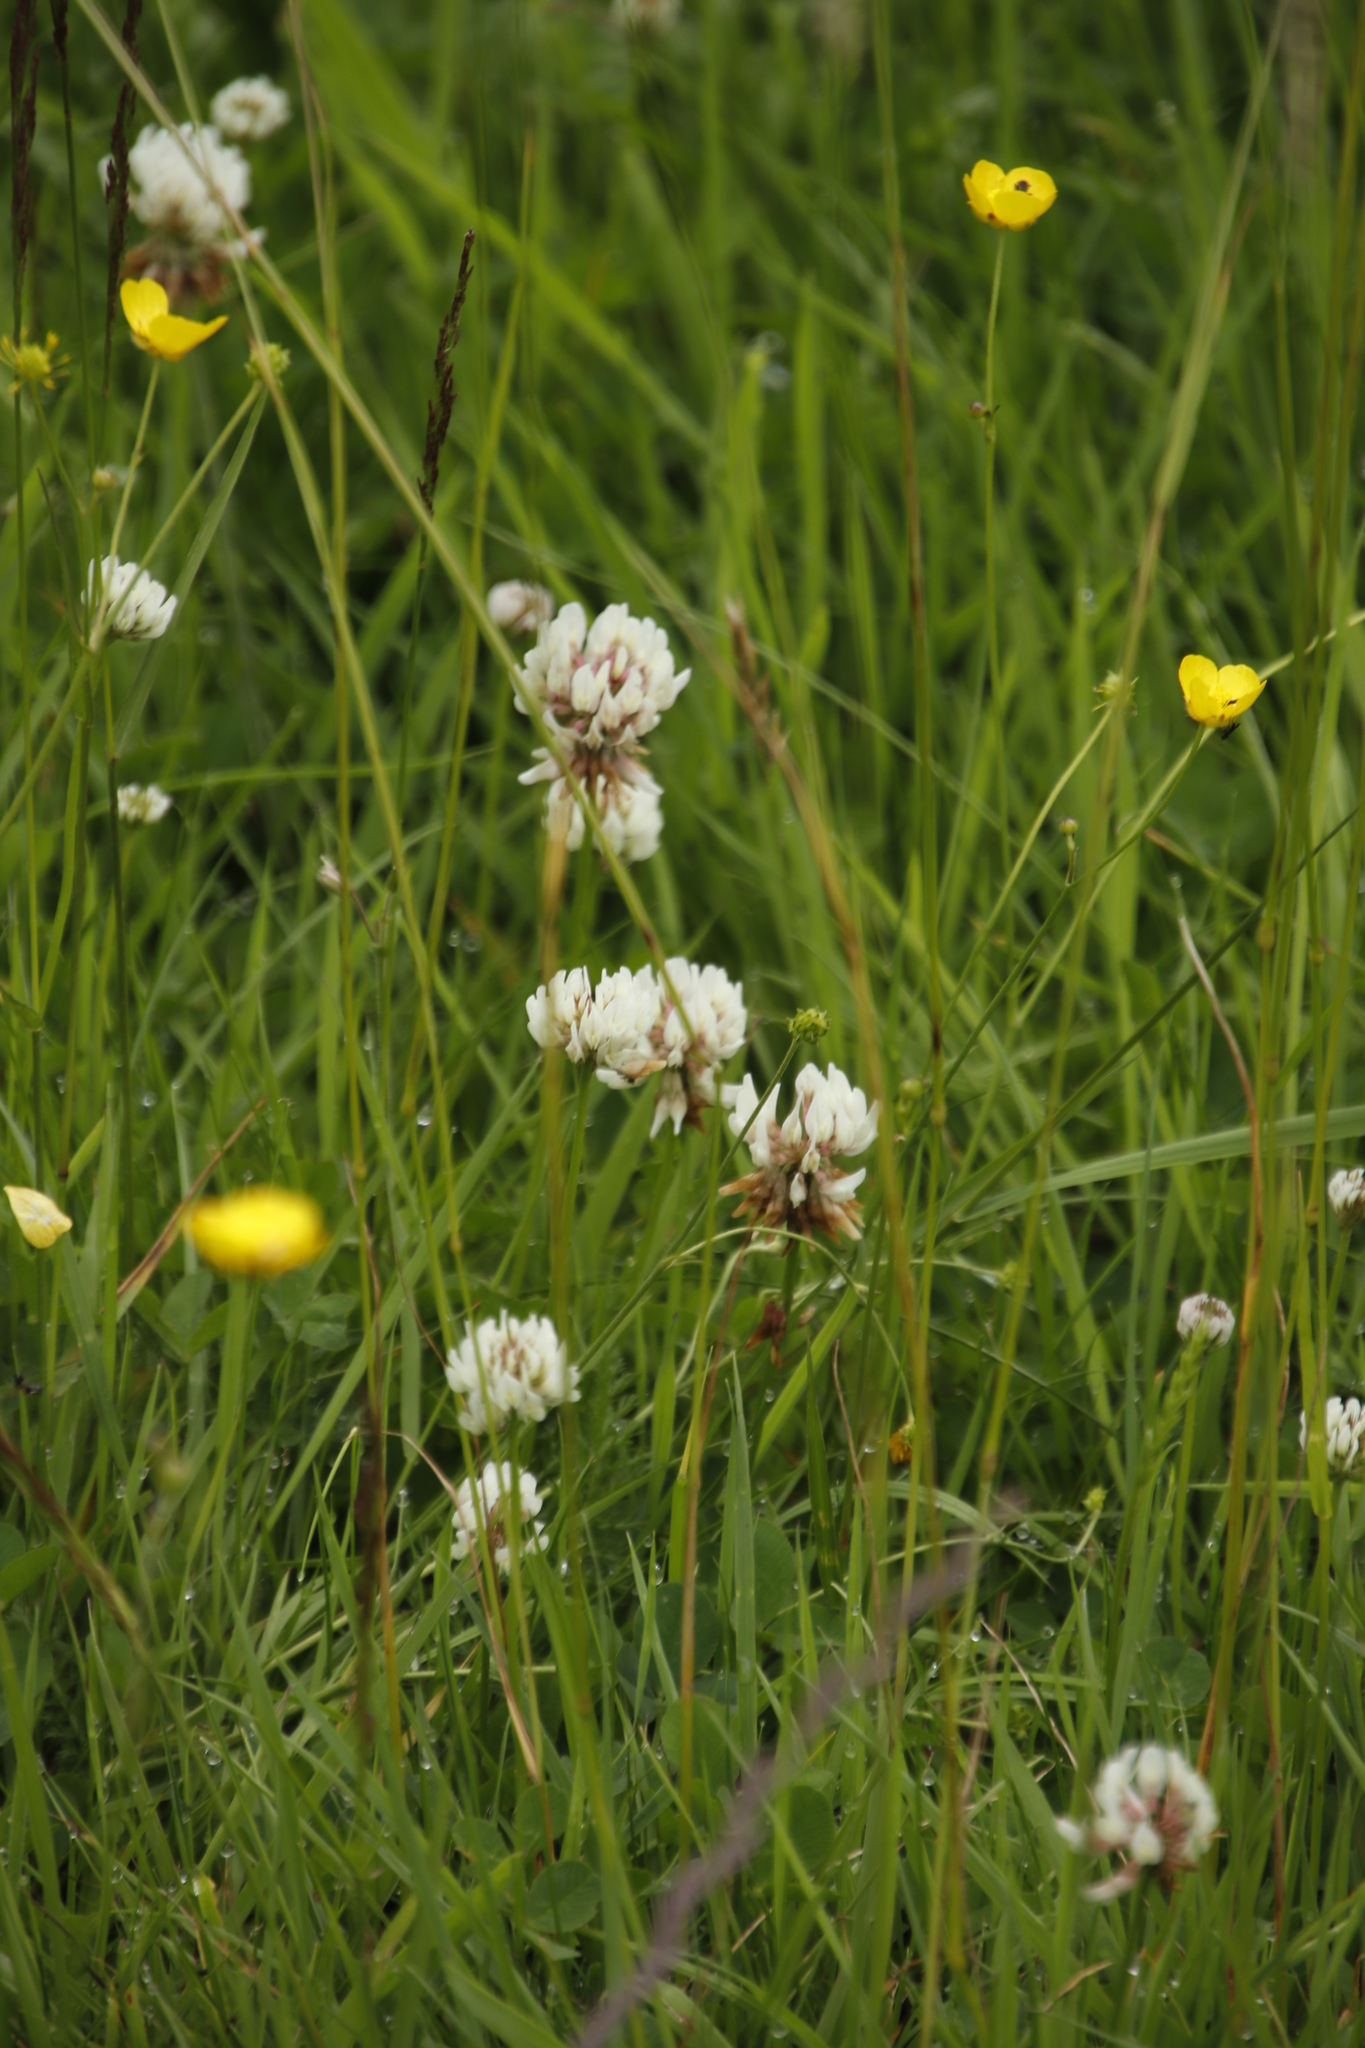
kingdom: Plantae
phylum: Tracheophyta
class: Magnoliopsida
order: Fabales
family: Fabaceae
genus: Trifolium
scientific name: Trifolium repens
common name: White clover
